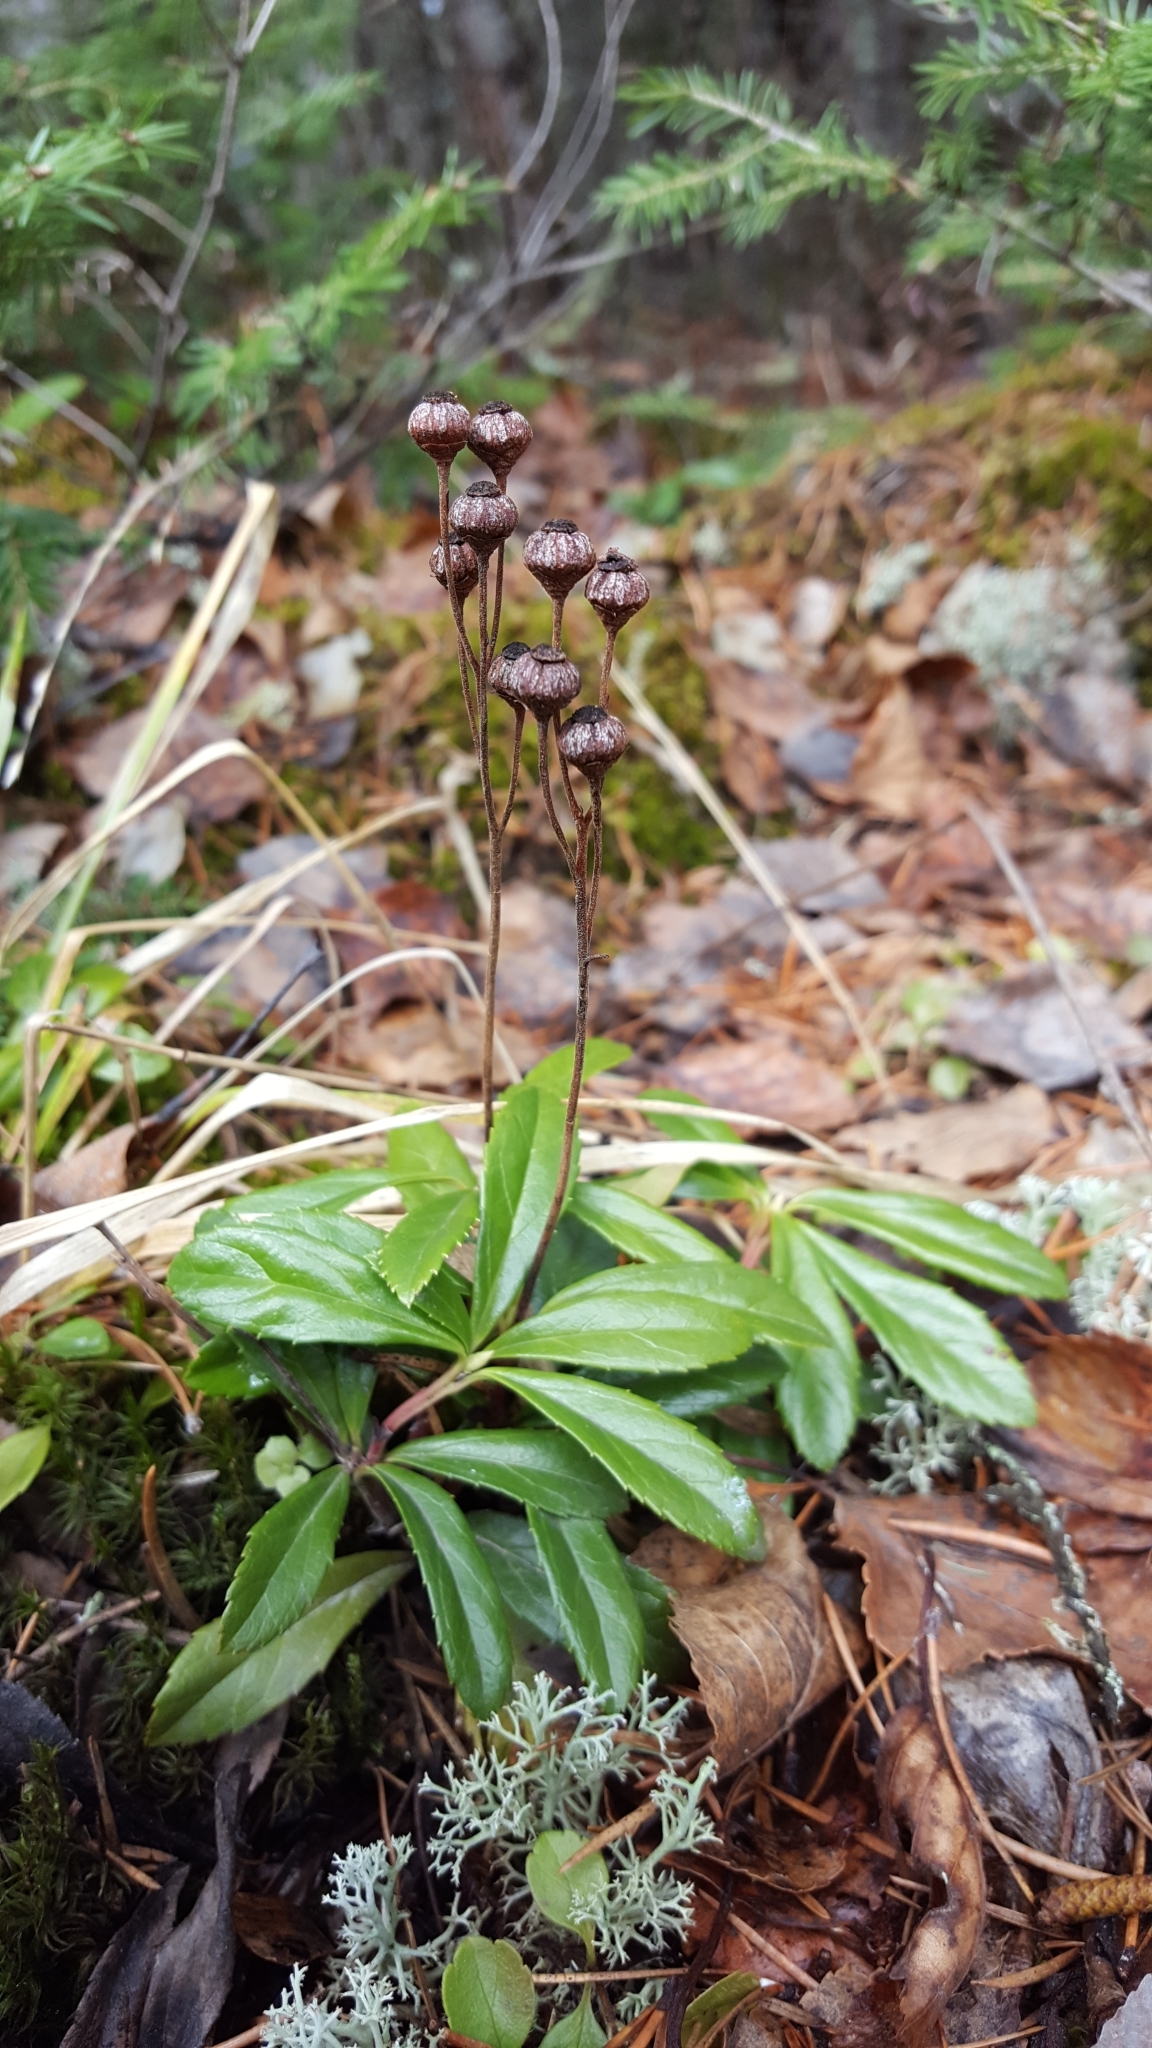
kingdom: Plantae
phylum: Tracheophyta
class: Magnoliopsida
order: Ericales
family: Ericaceae
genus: Chimaphila
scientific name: Chimaphila umbellata
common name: Pipsissewa
